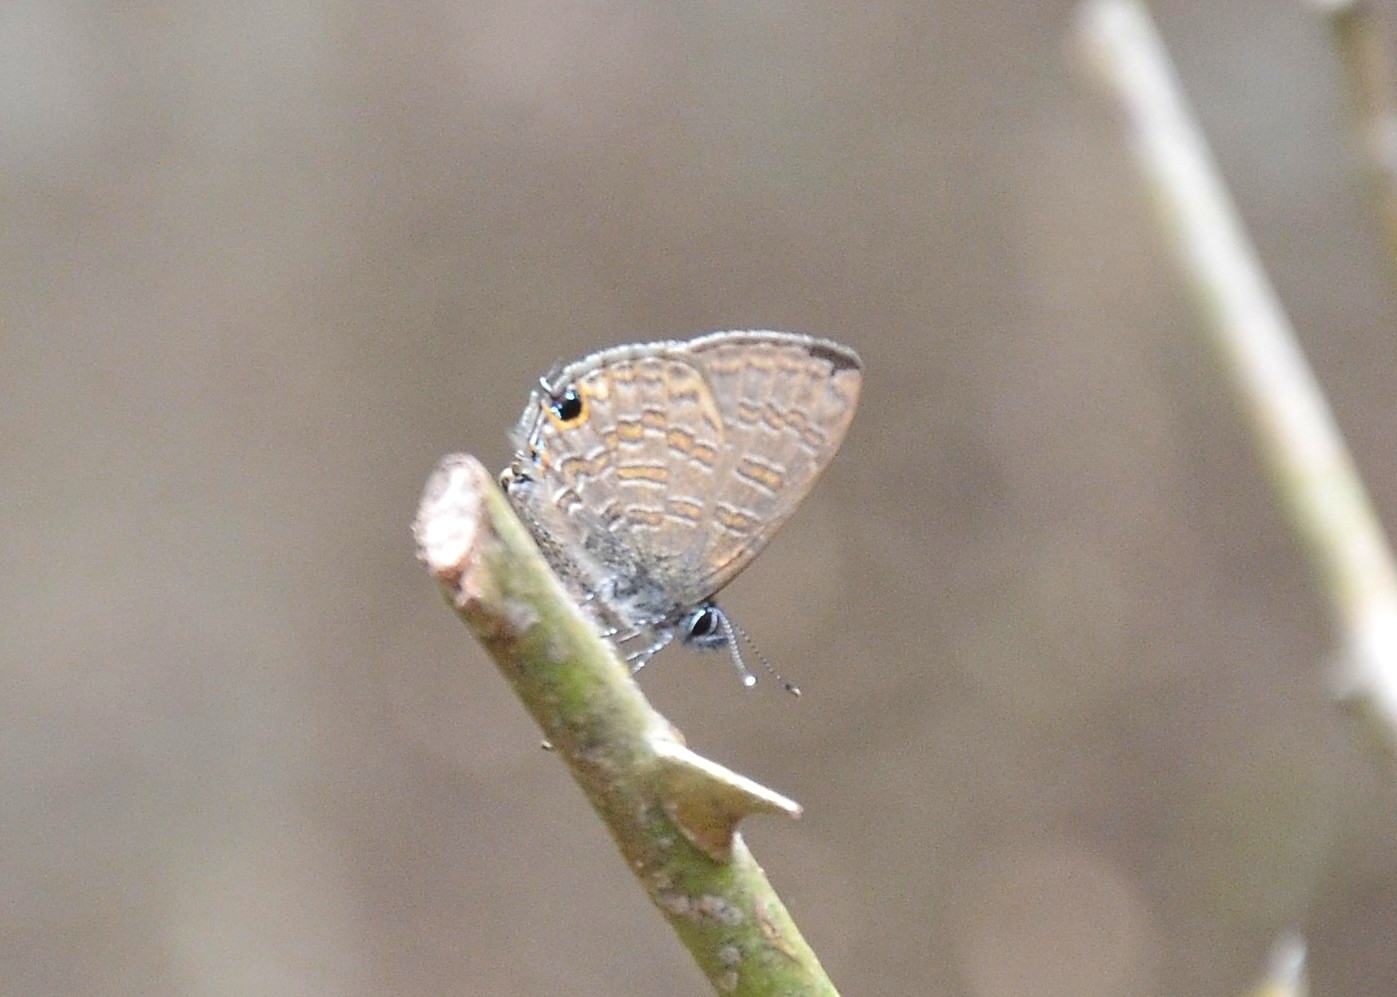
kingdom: Animalia
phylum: Arthropoda
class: Insecta
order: Lepidoptera
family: Lycaenidae
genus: Prosotas
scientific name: Prosotas nora
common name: Common line blue
